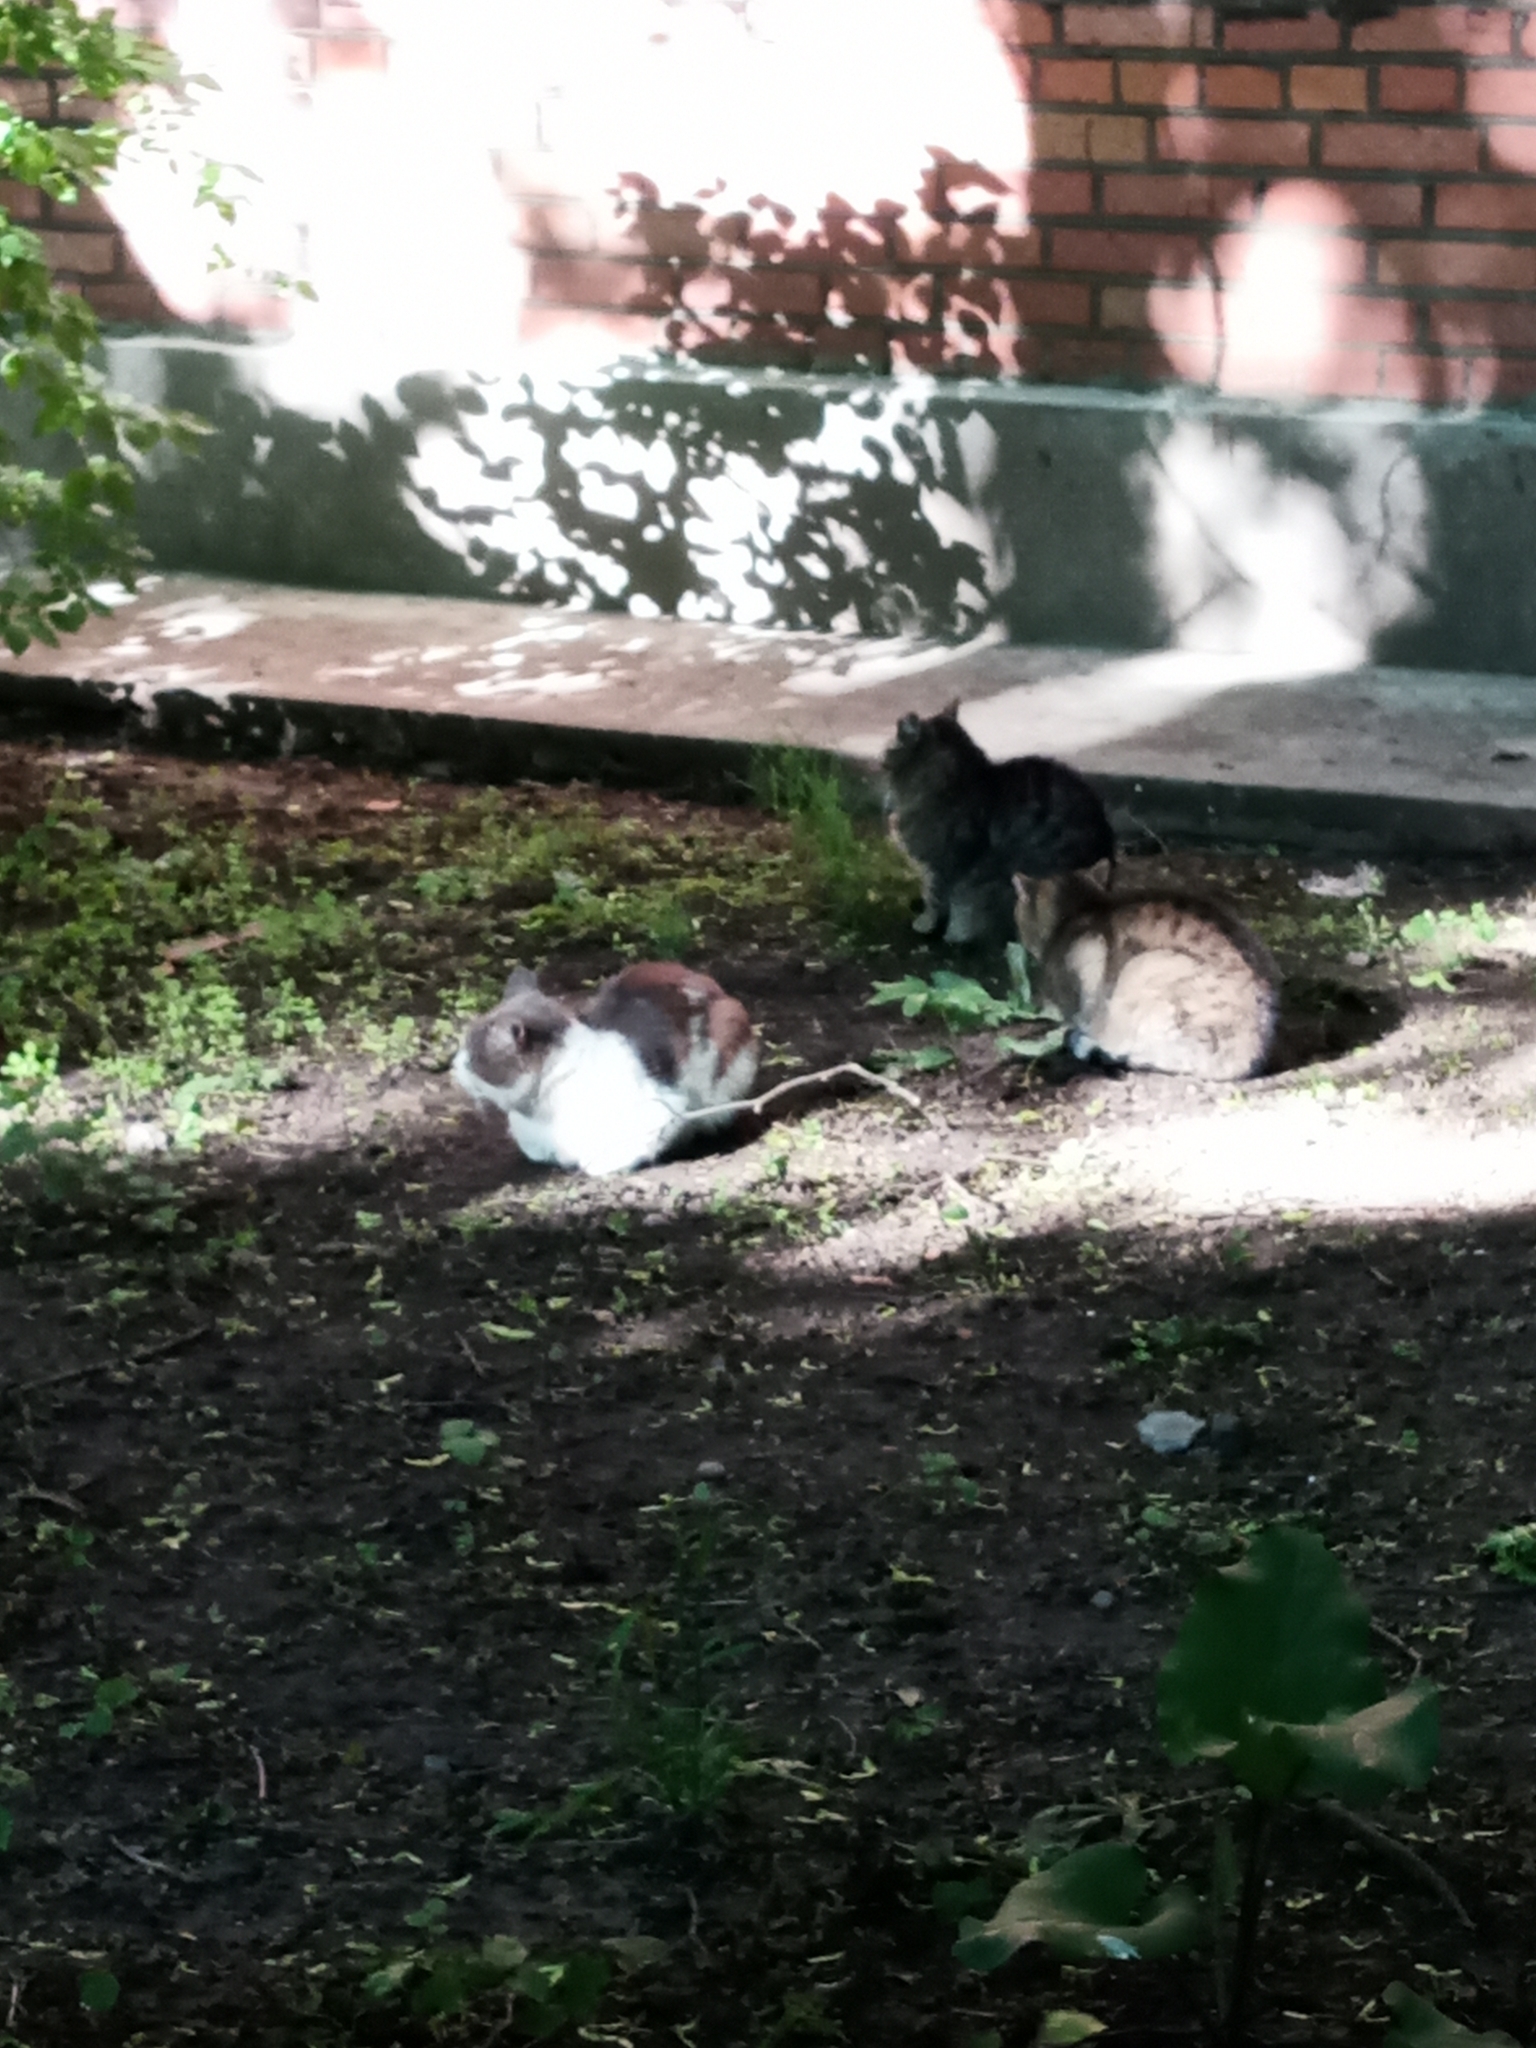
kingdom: Animalia
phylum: Chordata
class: Mammalia
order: Carnivora
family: Felidae
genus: Felis
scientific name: Felis catus
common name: Domestic cat
